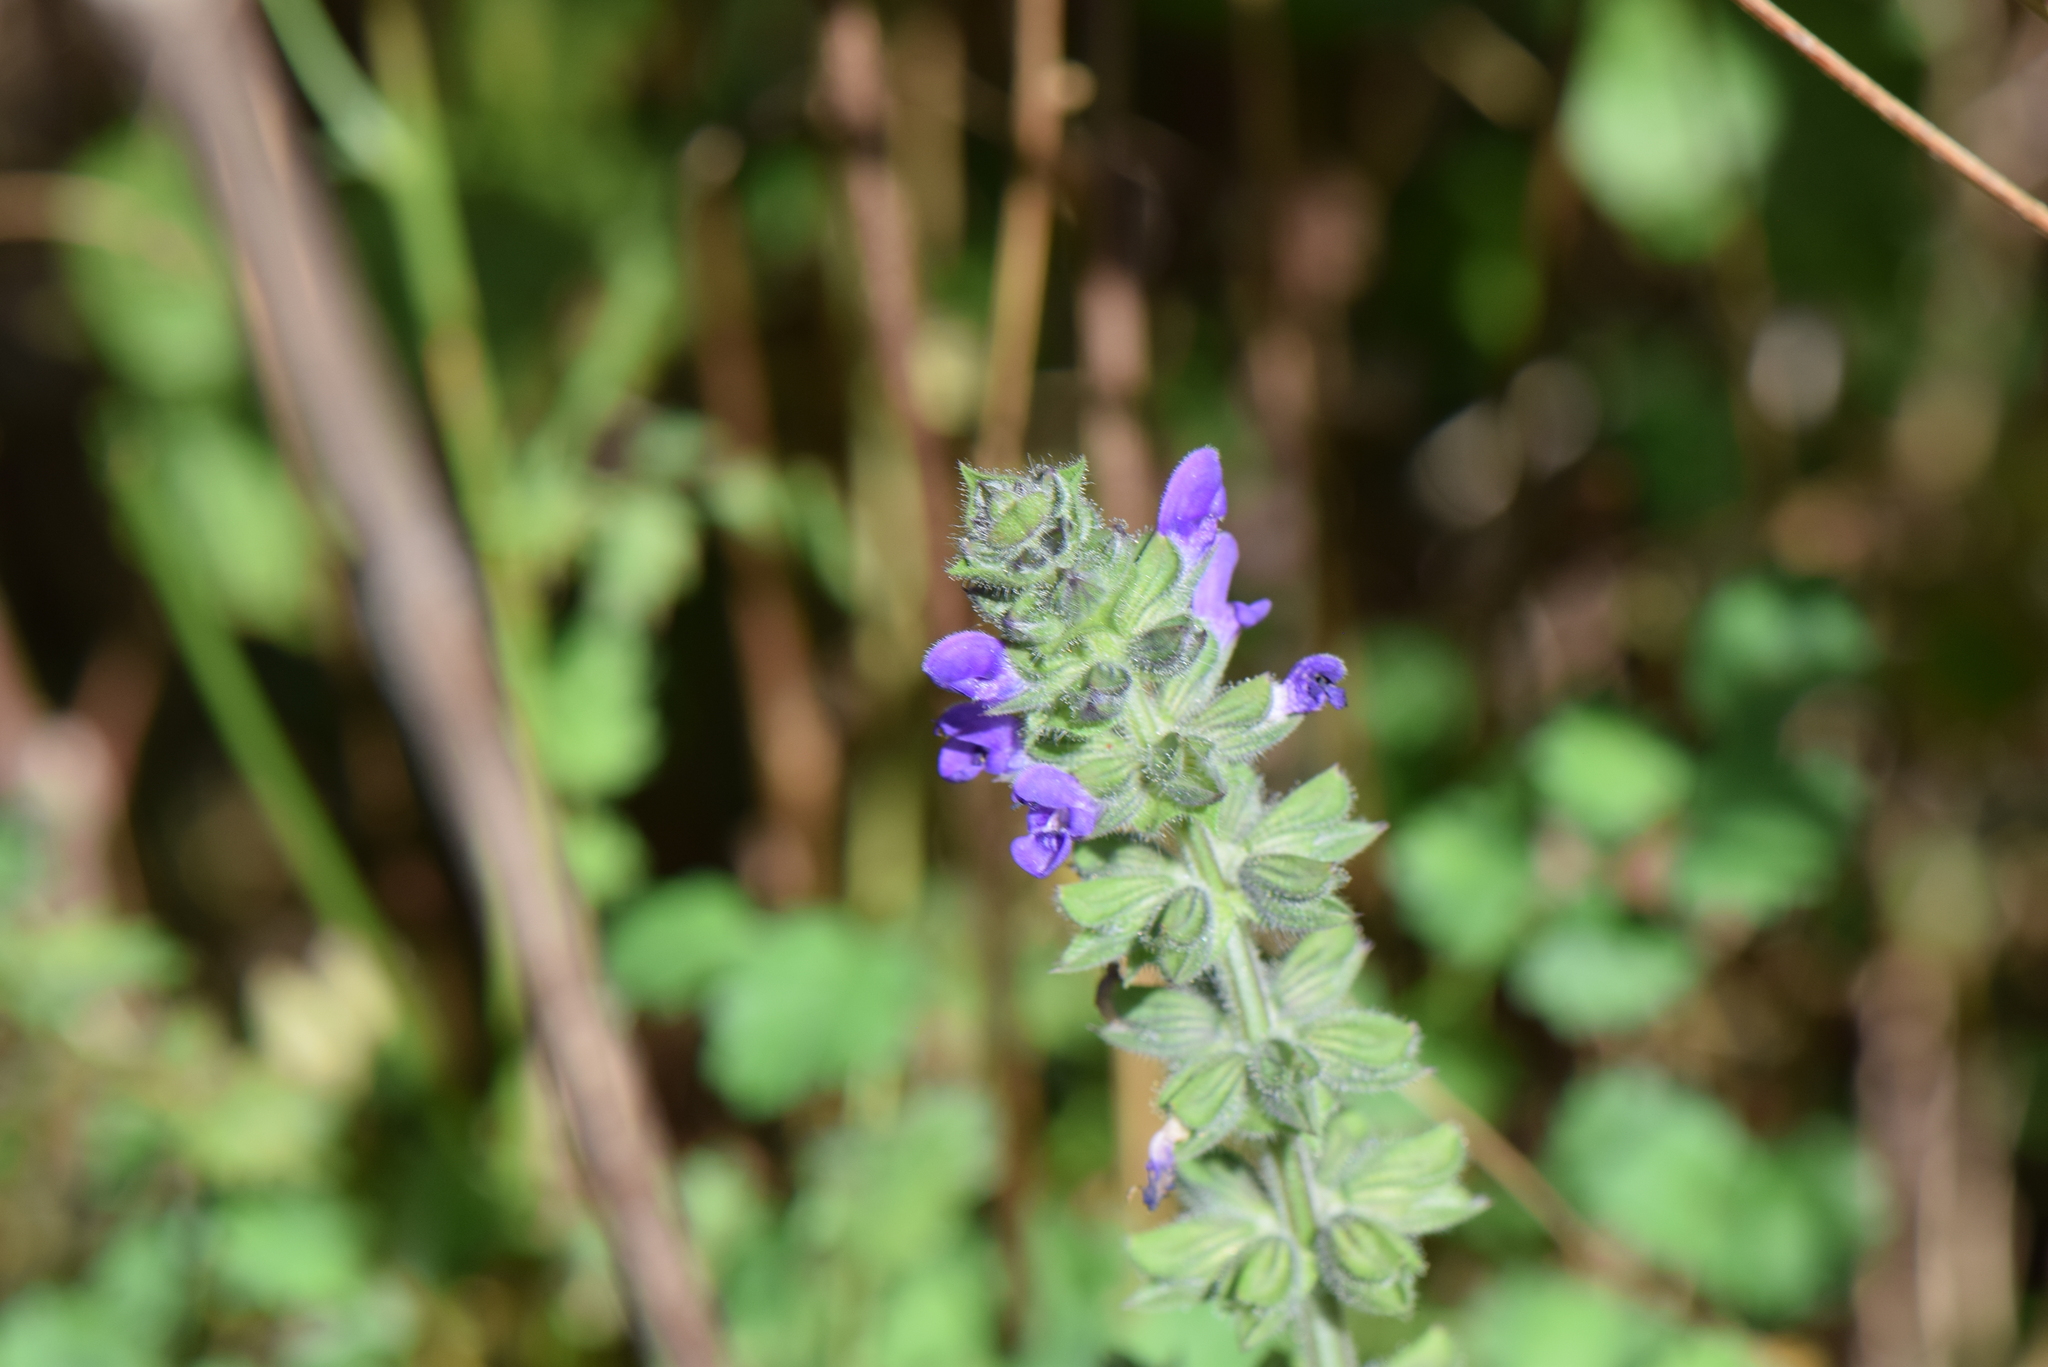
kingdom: Plantae
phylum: Tracheophyta
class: Magnoliopsida
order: Lamiales
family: Lamiaceae
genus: Salvia
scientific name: Salvia verbenaca
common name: Wild clary
